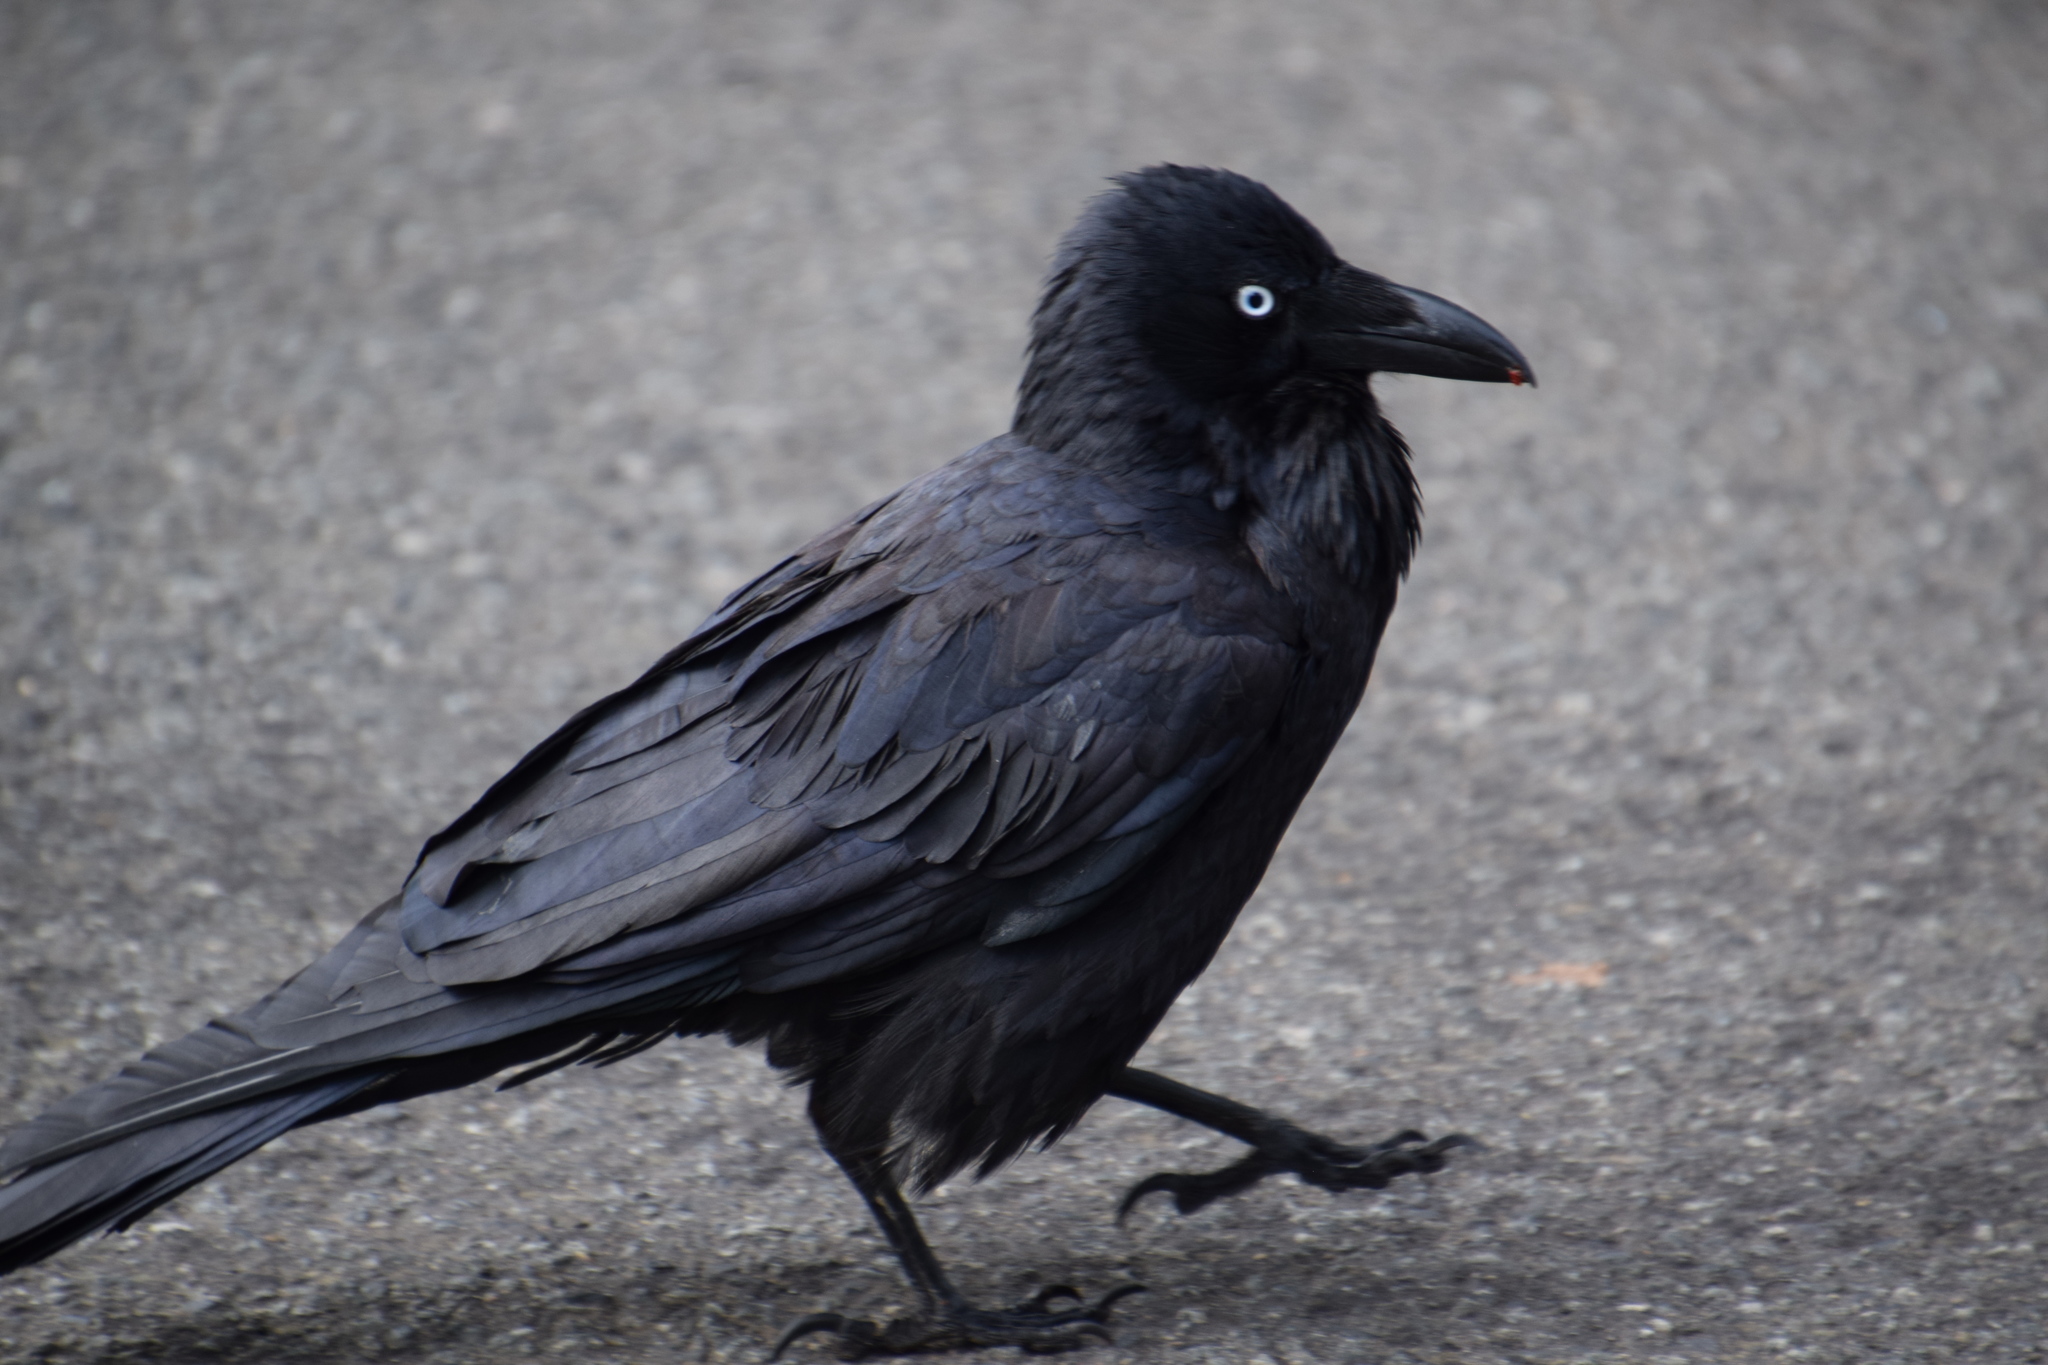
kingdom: Animalia
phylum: Chordata
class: Aves
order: Passeriformes
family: Corvidae
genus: Corvus
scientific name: Corvus coronoides
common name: Australian raven
